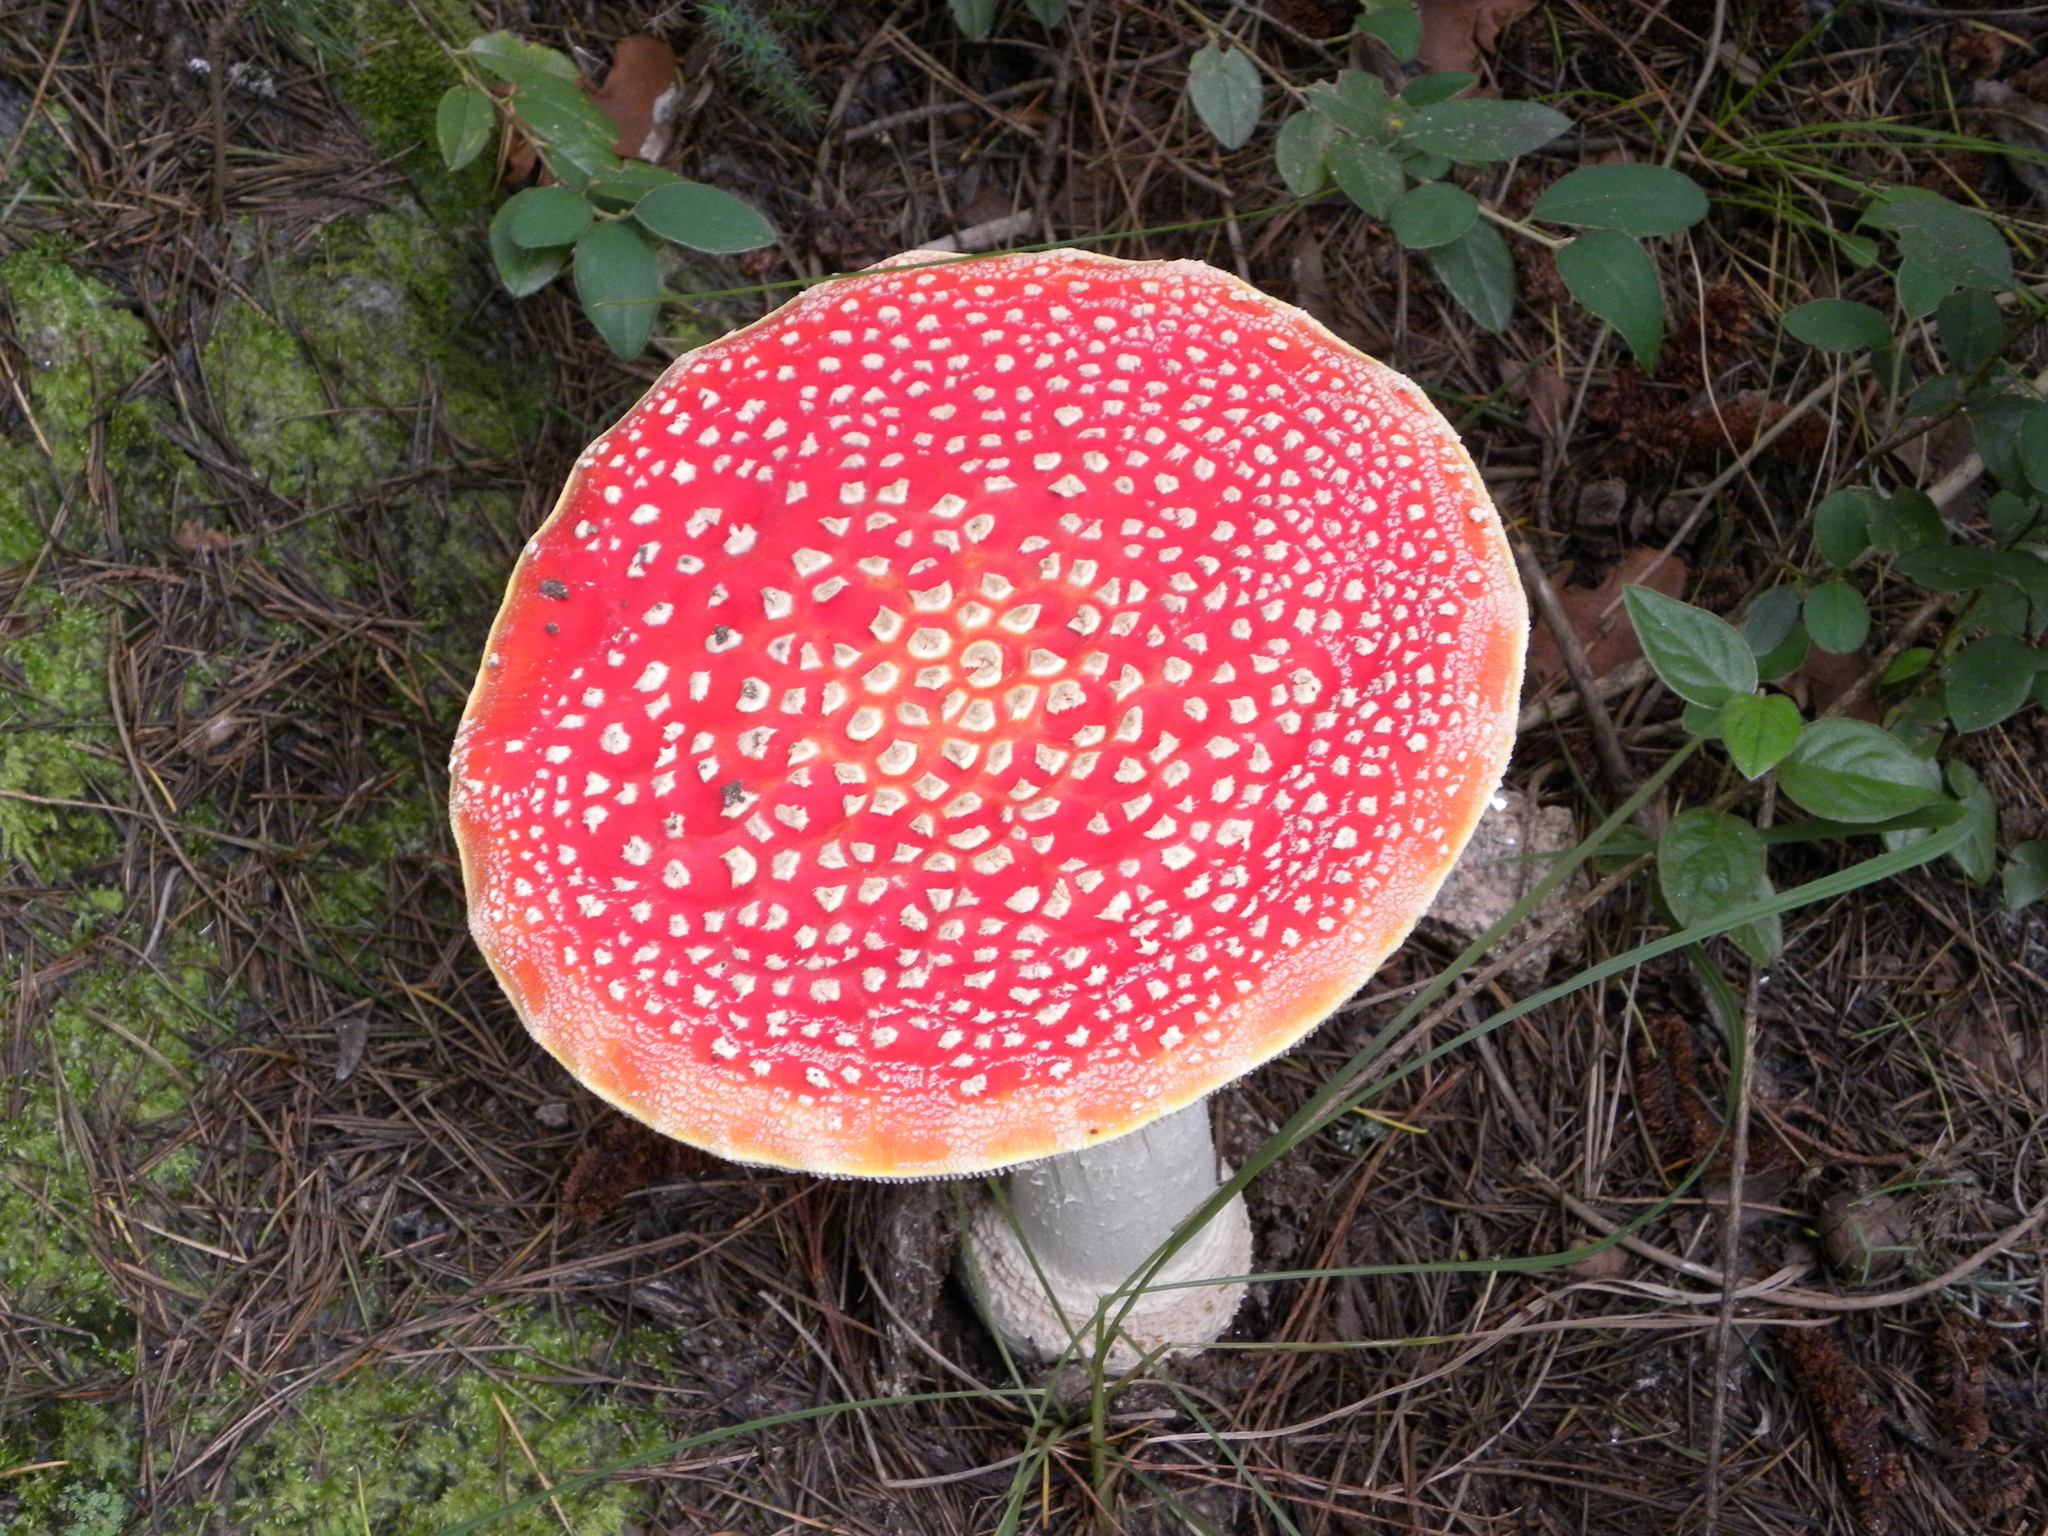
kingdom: Fungi
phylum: Basidiomycota
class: Agaricomycetes
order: Agaricales
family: Amanitaceae
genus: Amanita
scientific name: Amanita muscaria
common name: Fly agaric
